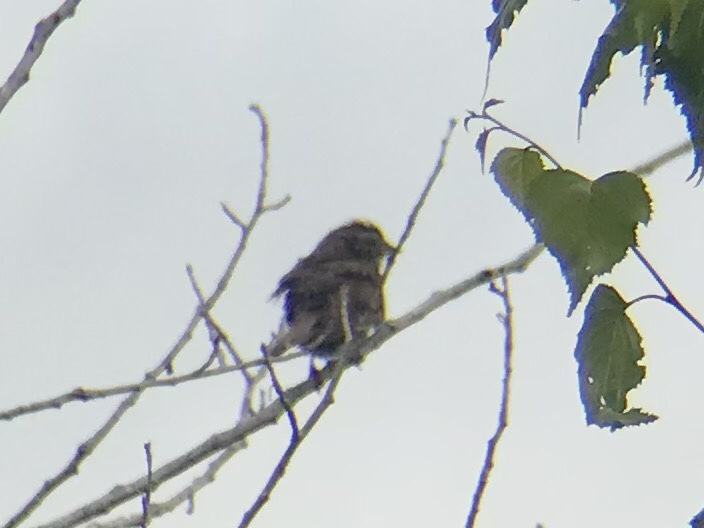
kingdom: Animalia
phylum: Chordata
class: Aves
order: Passeriformes
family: Passerellidae
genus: Melospiza
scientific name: Melospiza melodia
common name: Song sparrow
